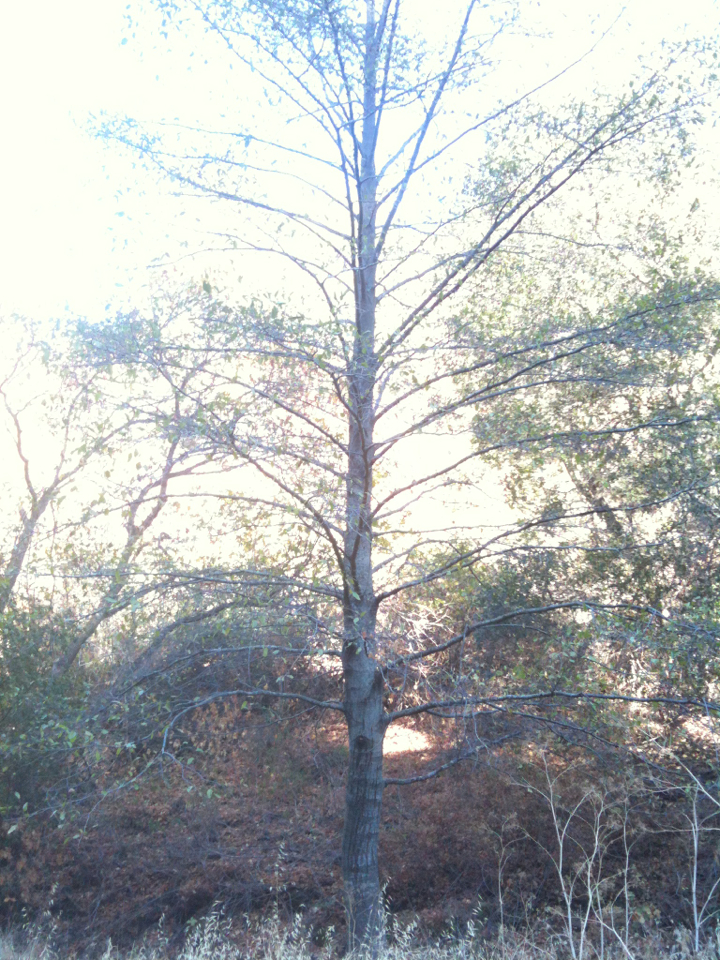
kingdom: Plantae
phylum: Tracheophyta
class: Magnoliopsida
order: Fagales
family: Betulaceae
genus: Alnus
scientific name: Alnus rhombifolia
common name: California alder
